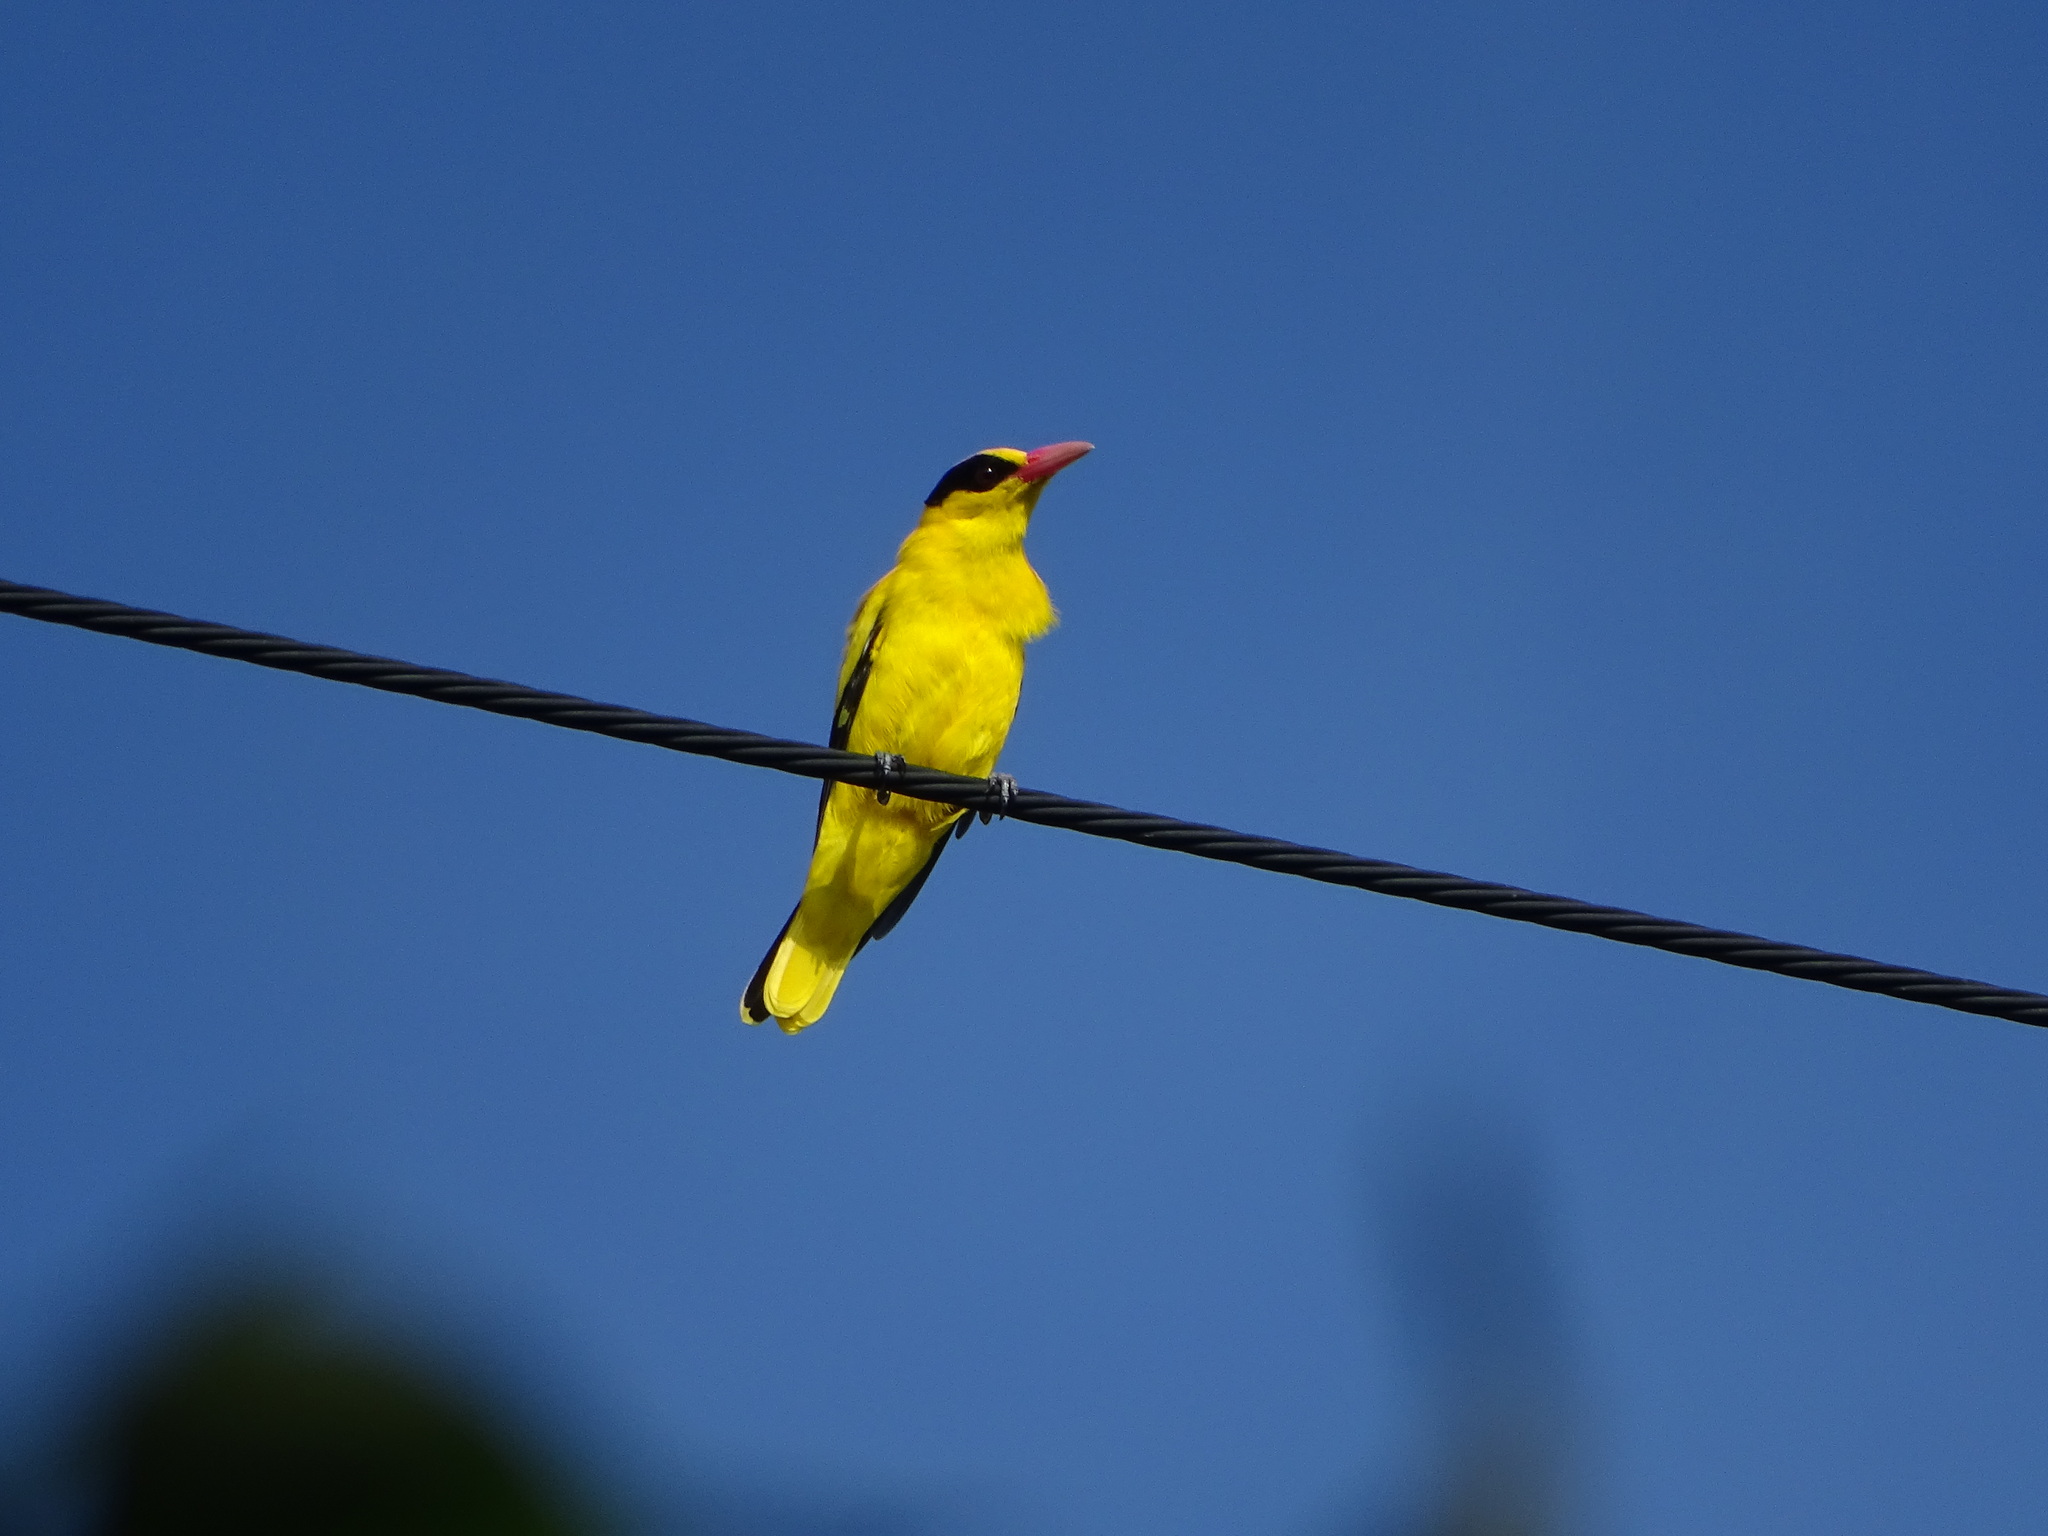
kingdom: Animalia
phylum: Chordata
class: Aves
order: Passeriformes
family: Oriolidae
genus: Oriolus
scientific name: Oriolus chinensis
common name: Black-naped oriole
